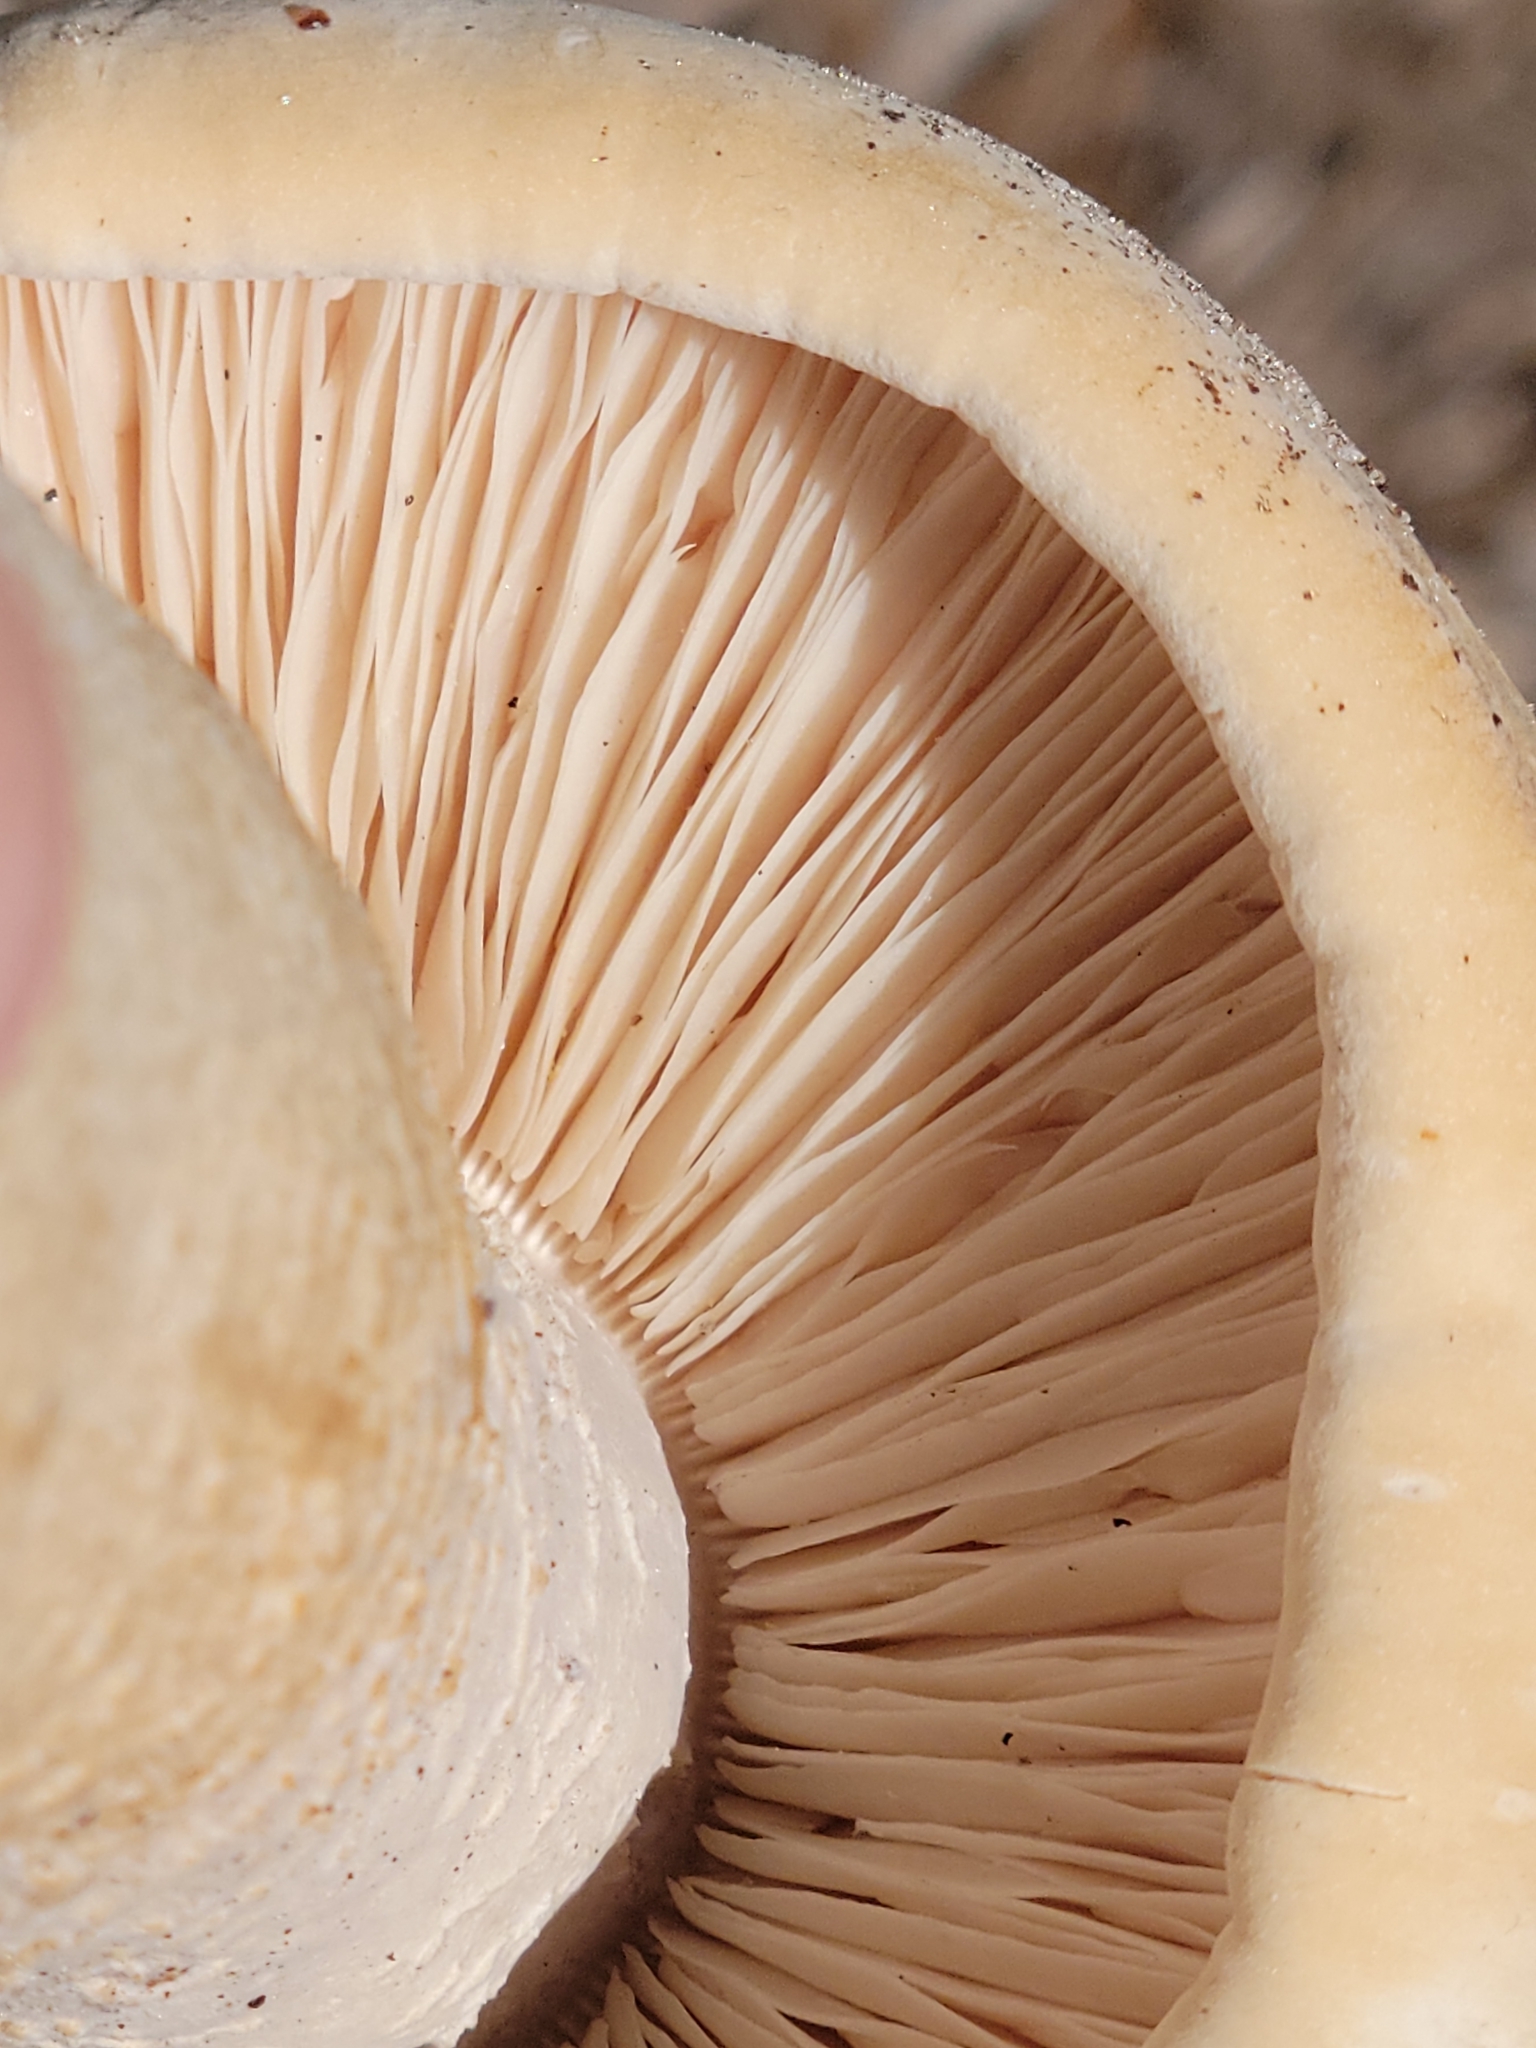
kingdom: Fungi
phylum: Basidiomycota
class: Agaricomycetes
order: Agaricales
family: Callistosporiaceae
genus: Macrocybe
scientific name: Macrocybe titans
